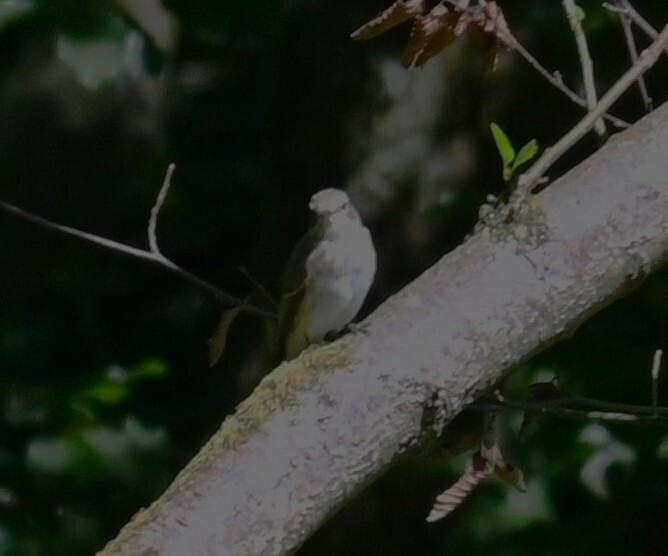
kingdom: Animalia
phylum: Chordata
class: Aves
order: Passeriformes
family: Muscicapidae
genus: Muscicapa
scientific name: Muscicapa striata
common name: Spotted flycatcher
